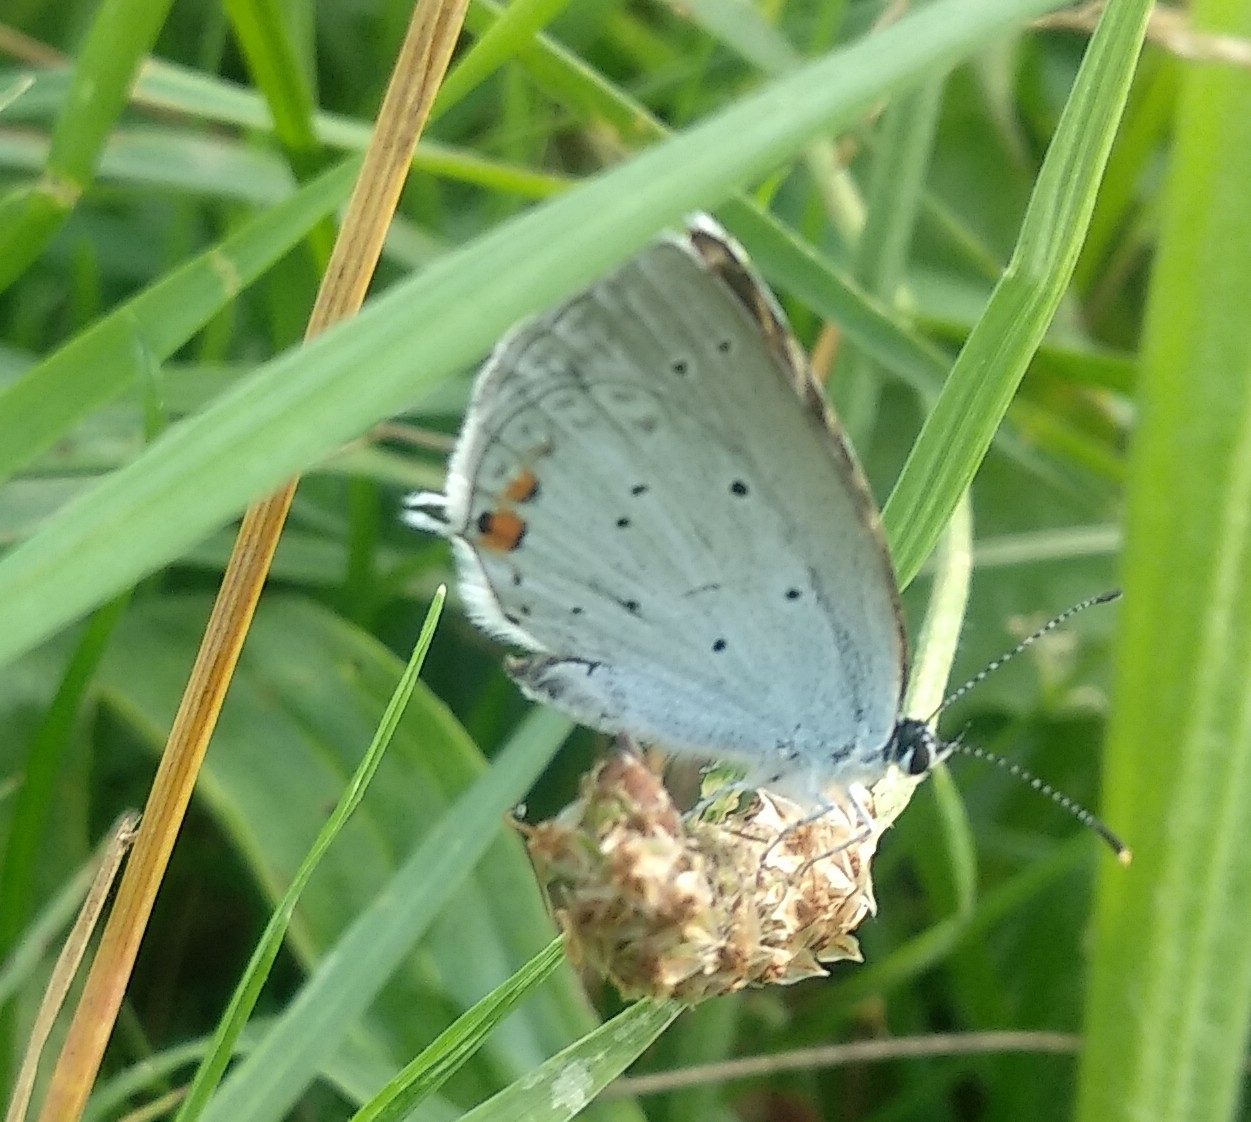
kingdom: Animalia
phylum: Arthropoda
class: Insecta
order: Lepidoptera
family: Lycaenidae
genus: Elkalyce
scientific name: Elkalyce argiades
